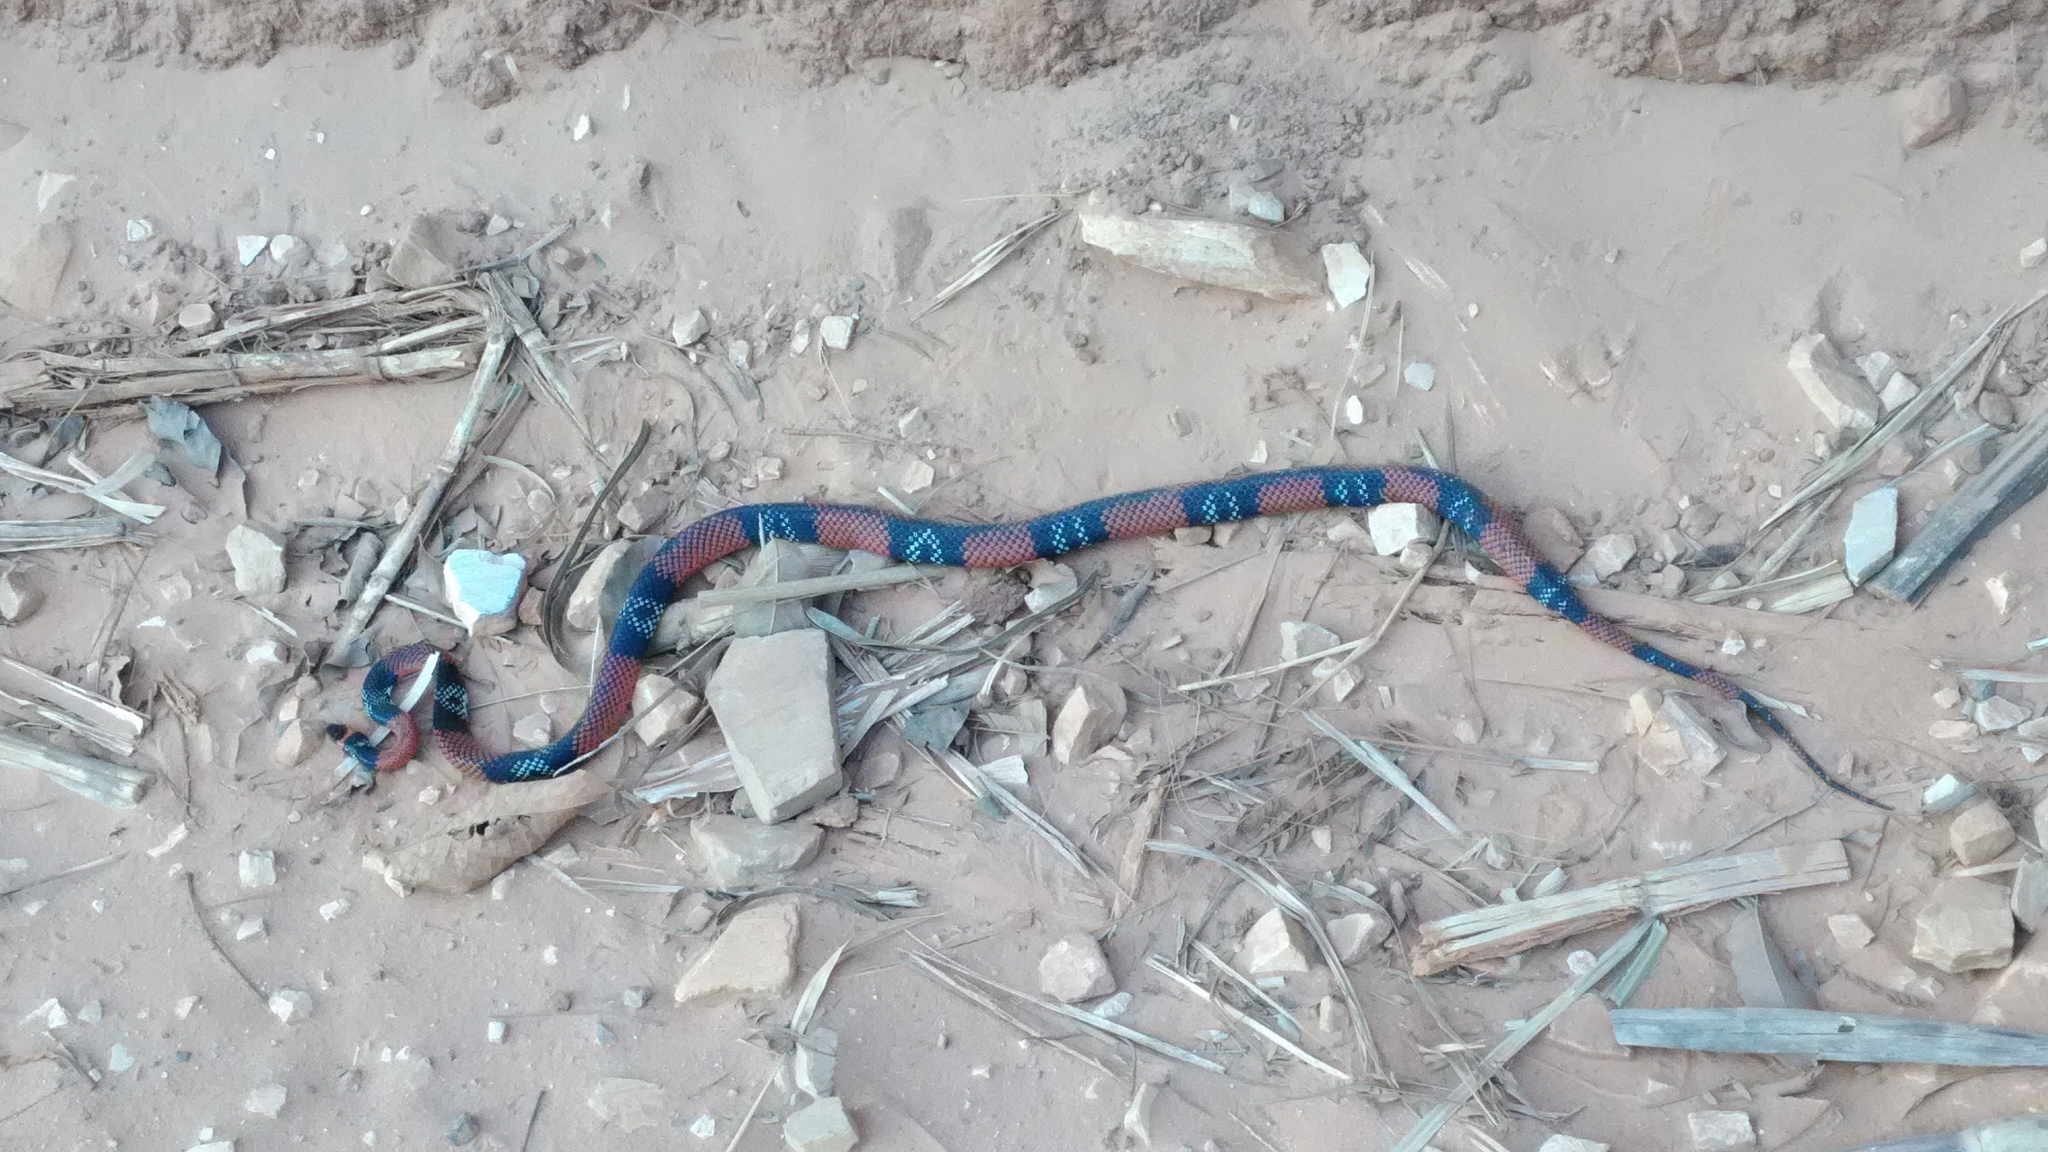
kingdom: Animalia
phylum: Chordata
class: Squamata
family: Colubridae
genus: Oxyrhopus
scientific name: Oxyrhopus guibei
